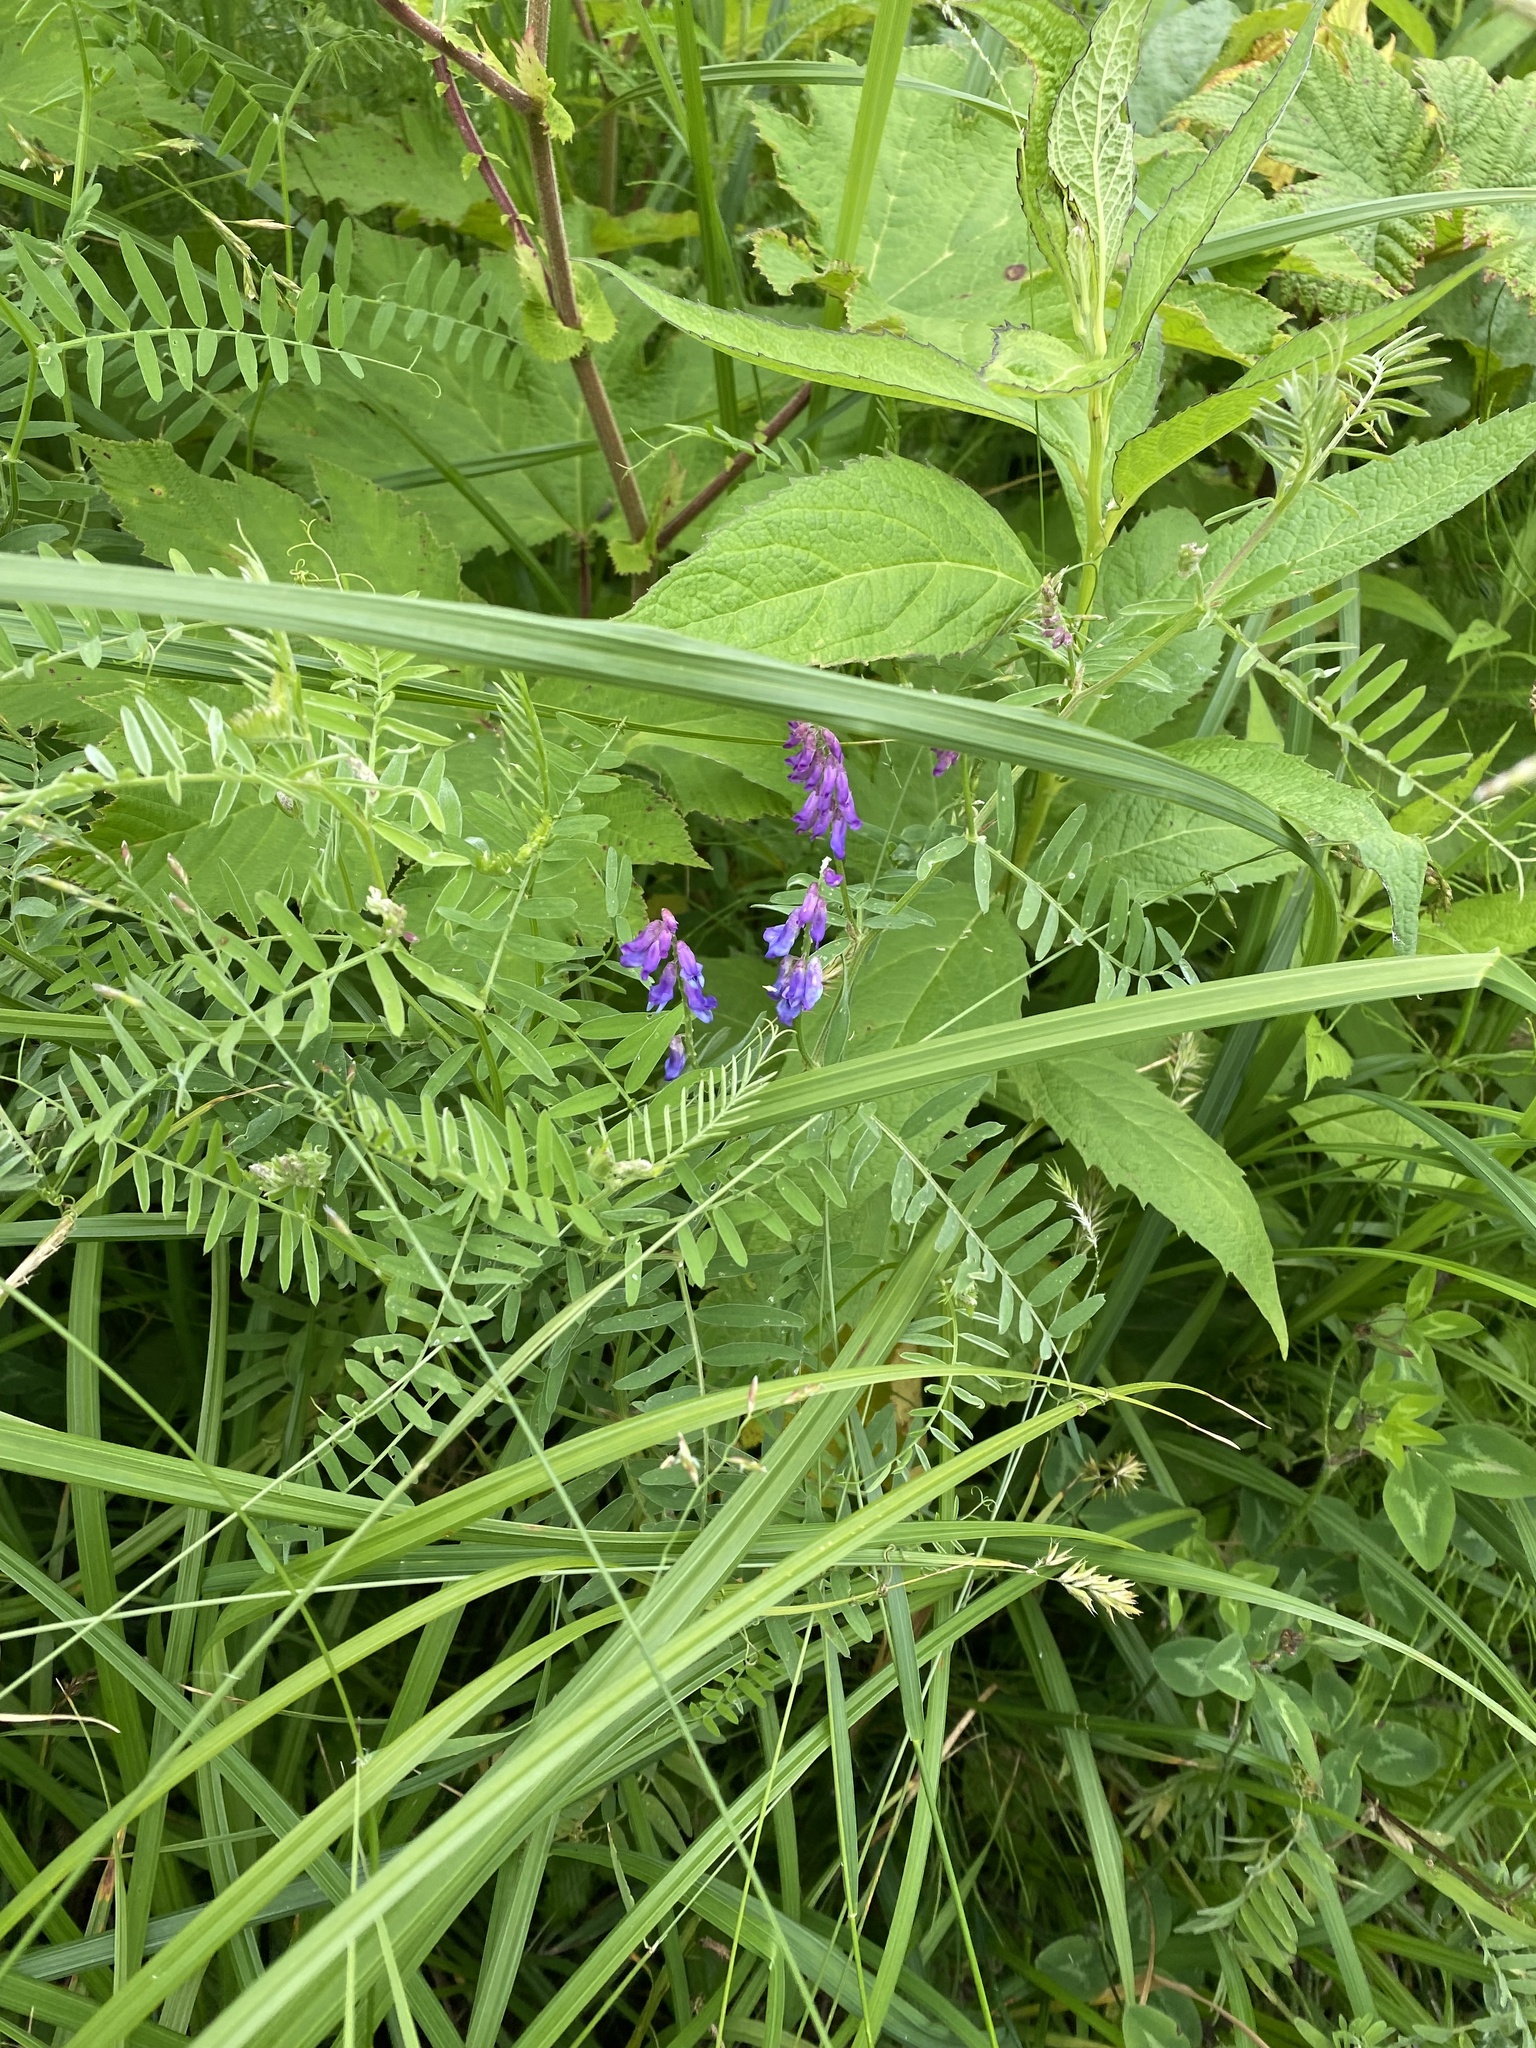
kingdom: Plantae
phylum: Tracheophyta
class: Magnoliopsida
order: Fabales
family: Fabaceae
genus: Vicia
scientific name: Vicia cracca
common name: Bird vetch
